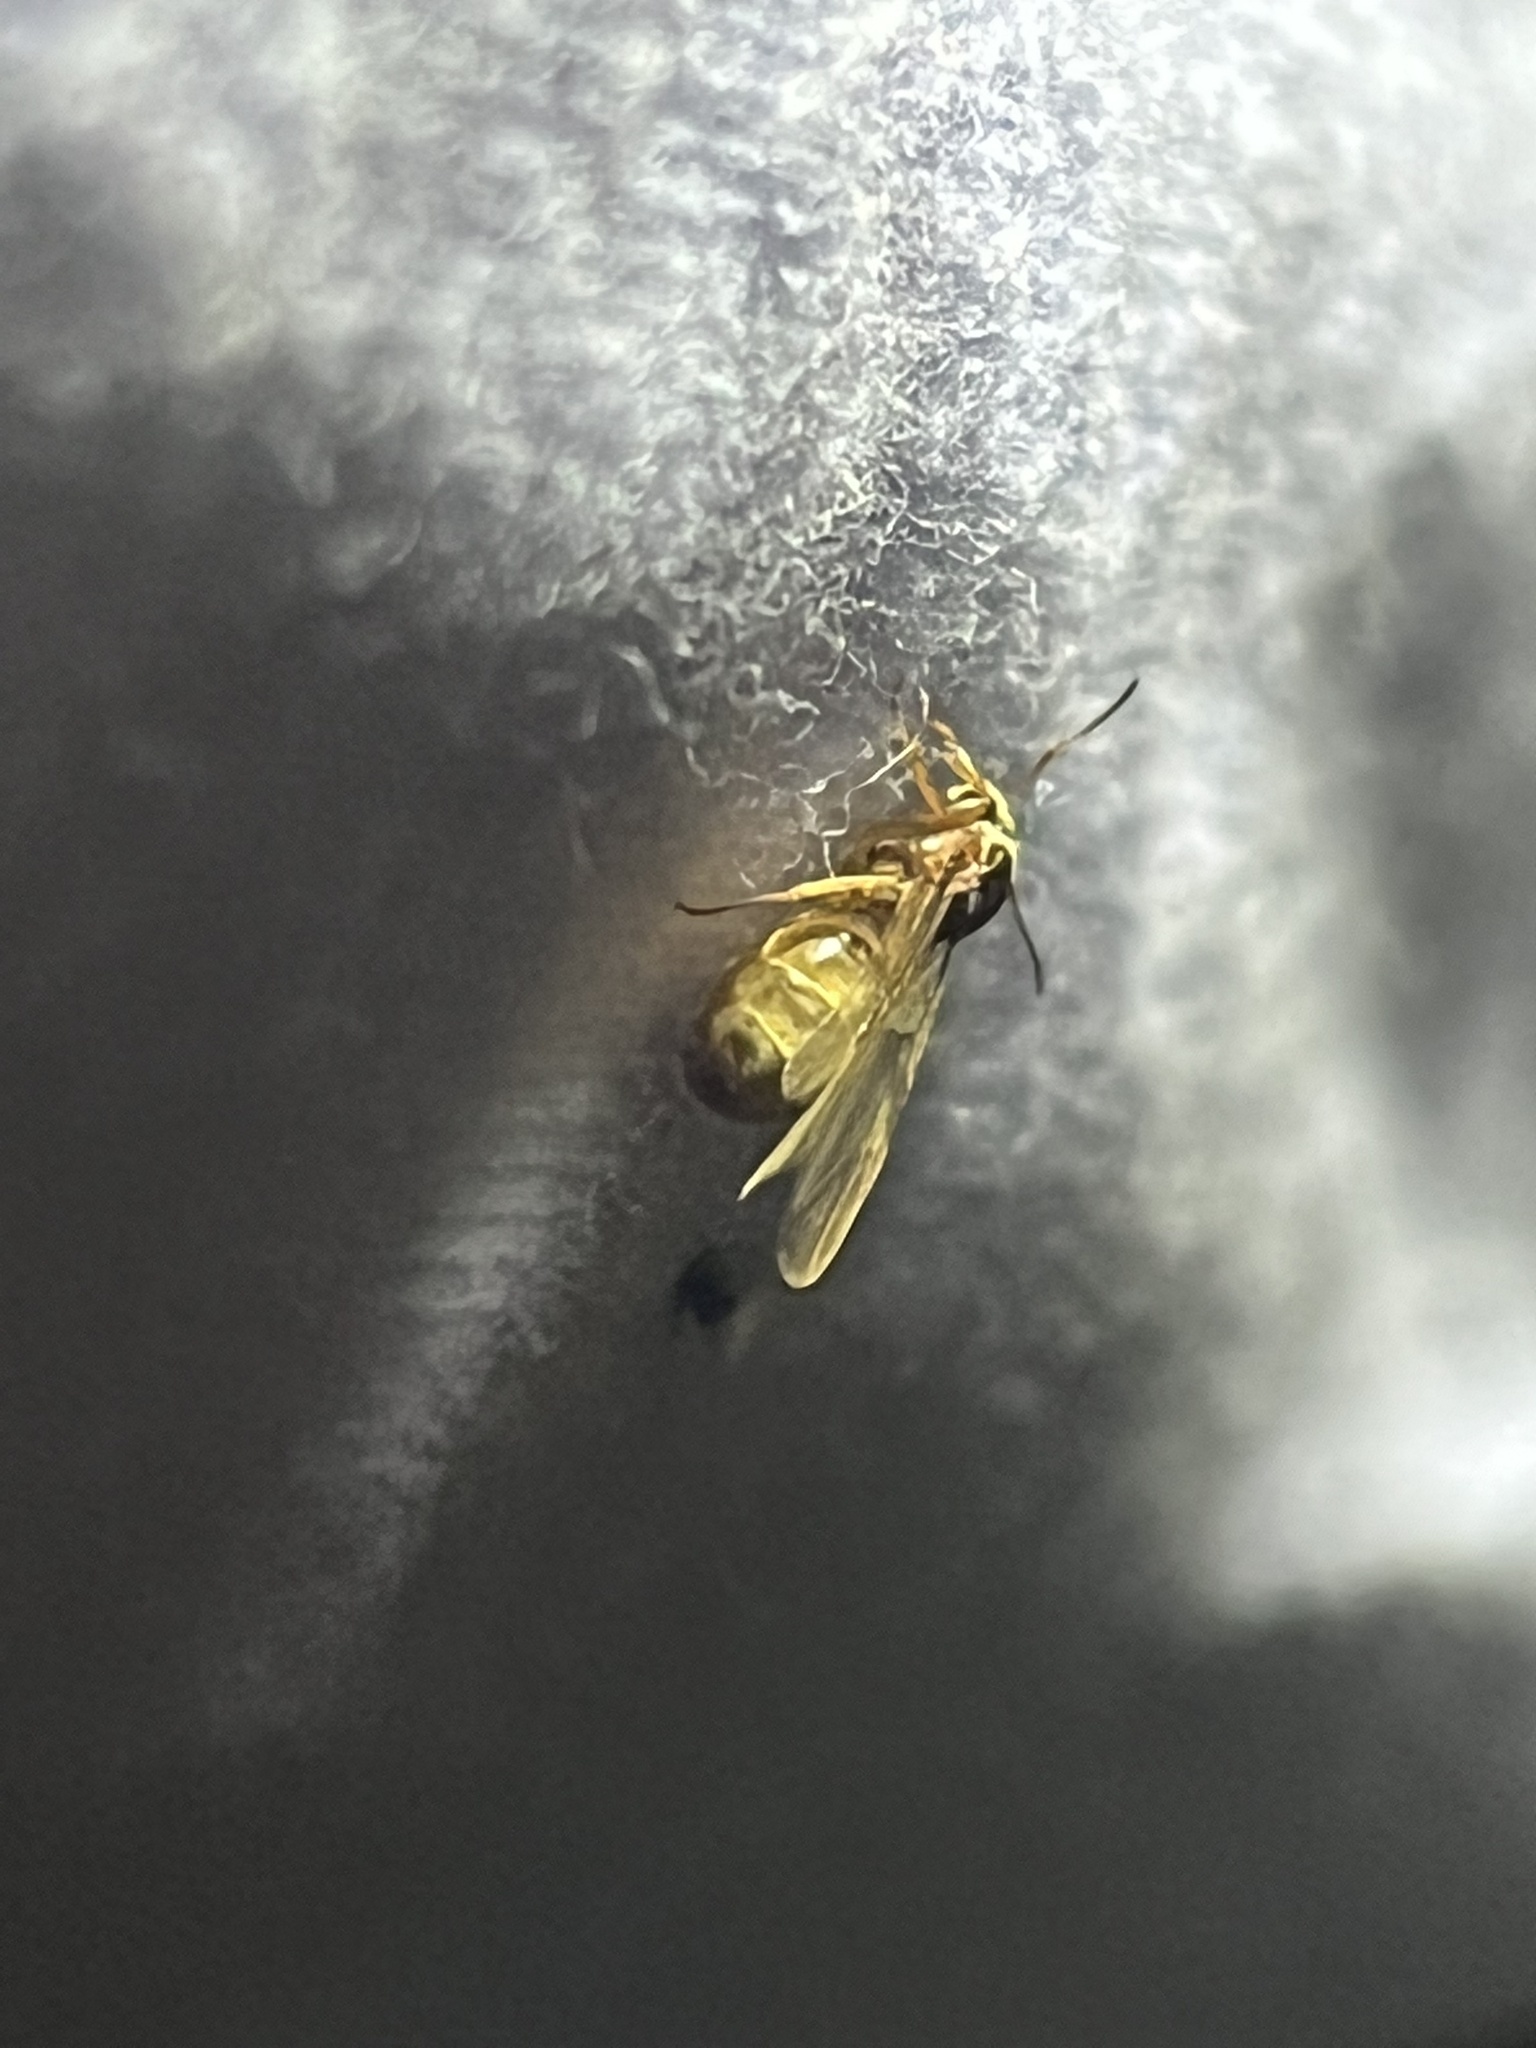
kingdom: Animalia
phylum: Arthropoda
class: Insecta
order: Hymenoptera
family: Formicidae
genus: Lasius
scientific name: Lasius americanus
